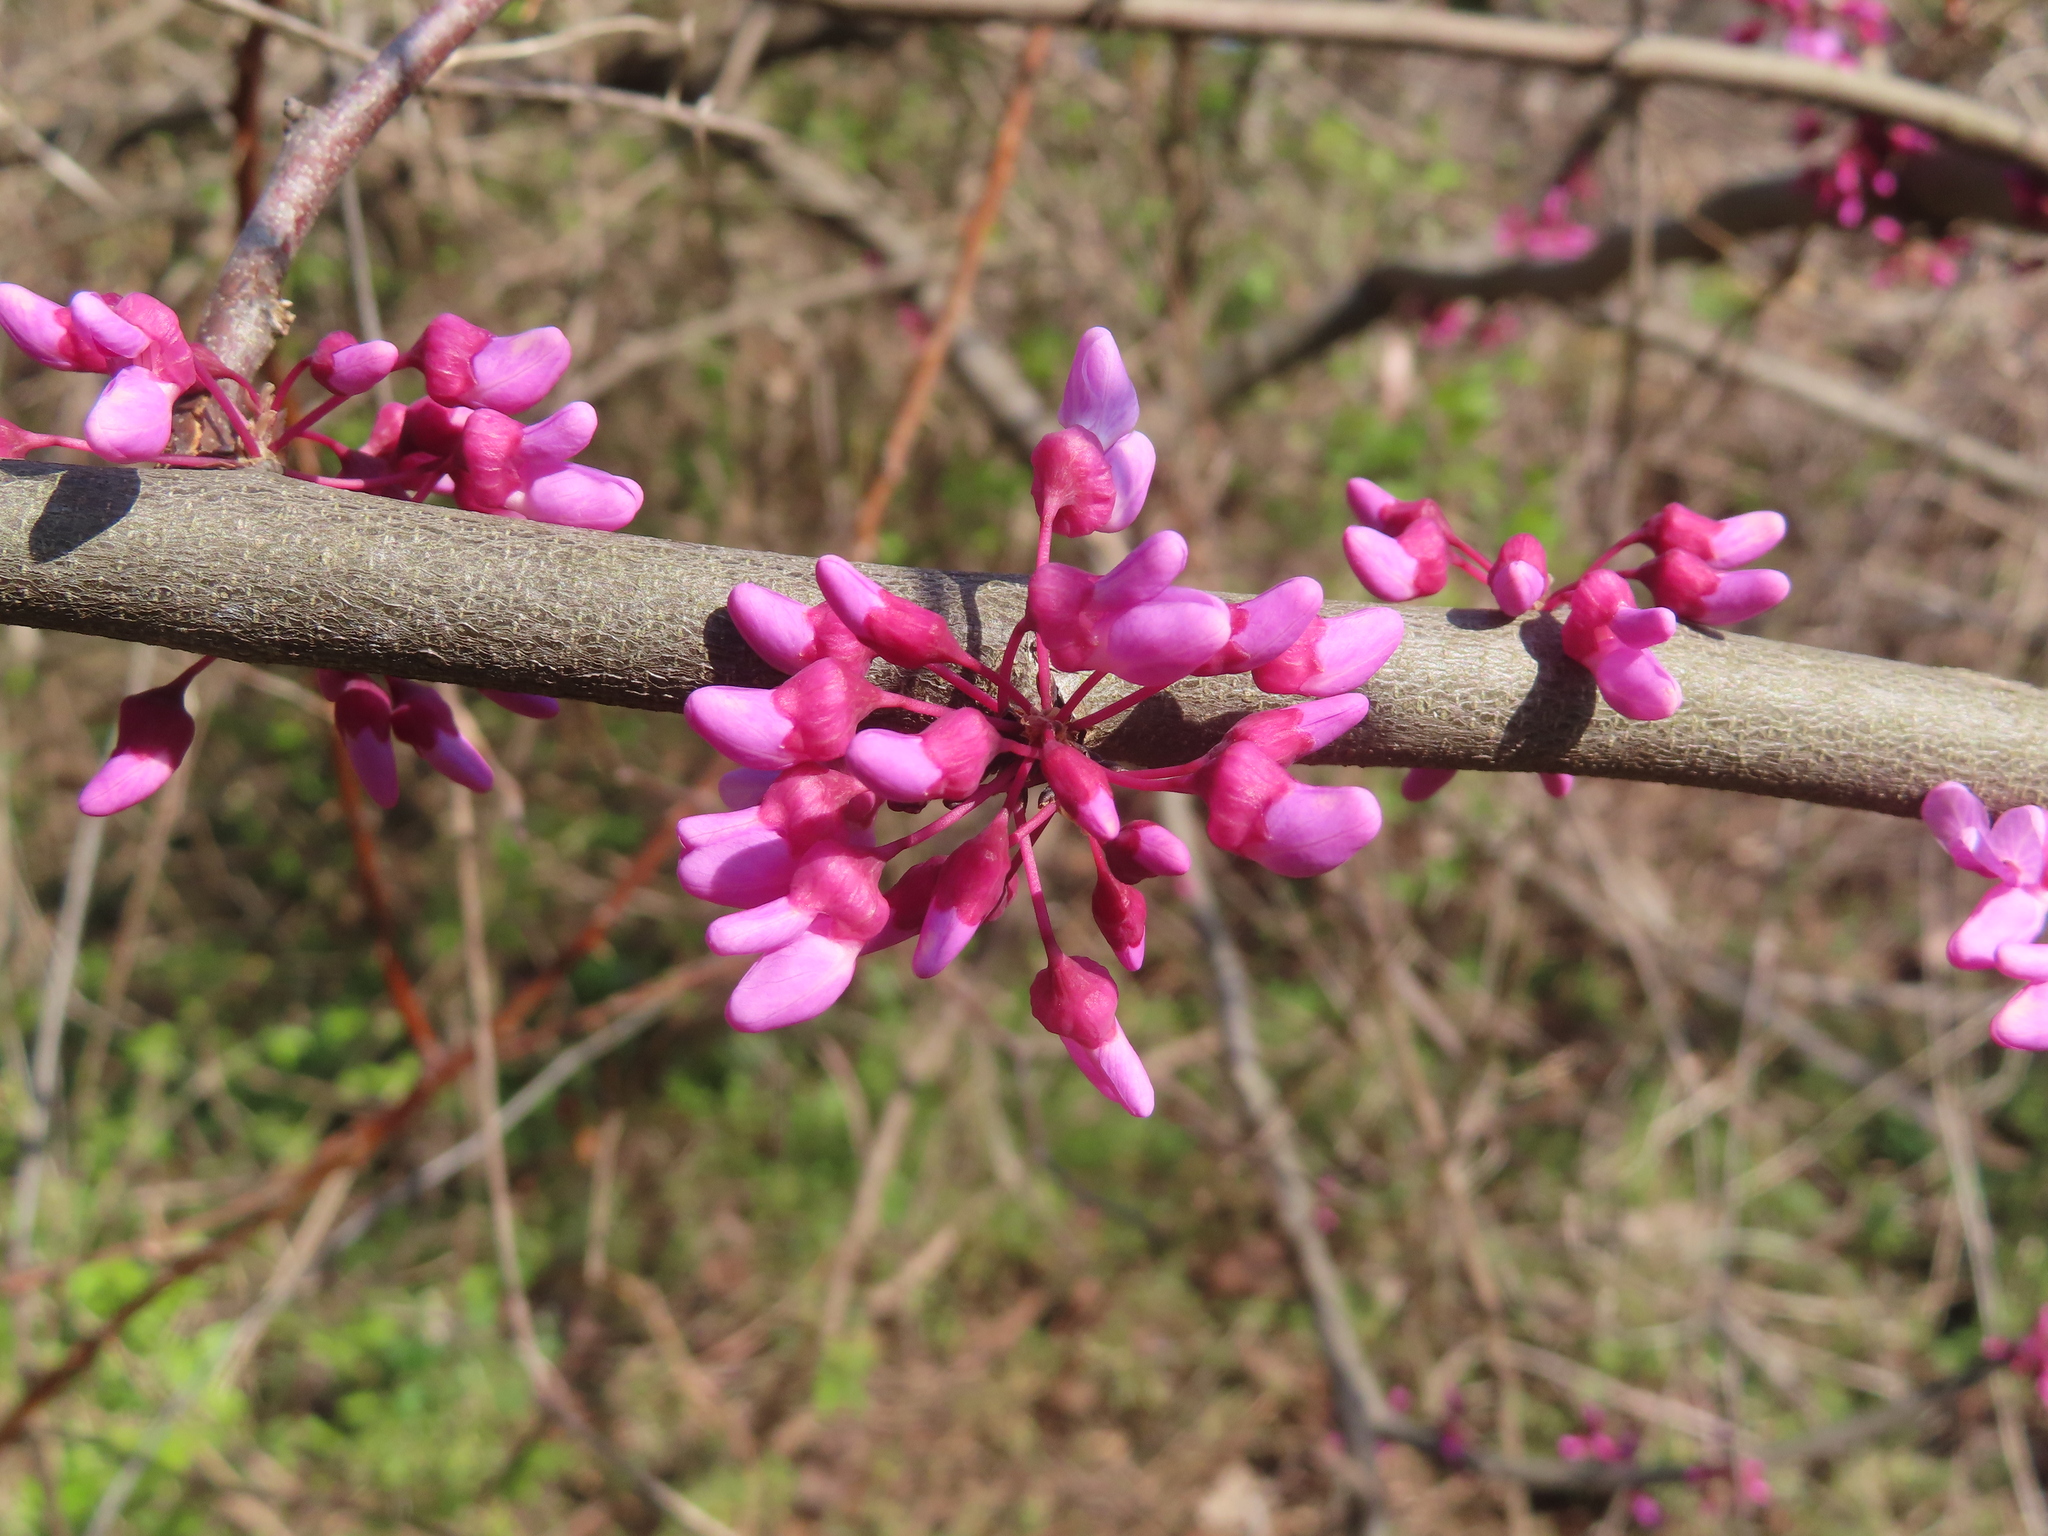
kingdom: Plantae
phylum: Tracheophyta
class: Magnoliopsida
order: Fabales
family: Fabaceae
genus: Cercis
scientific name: Cercis canadensis
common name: Eastern redbud
